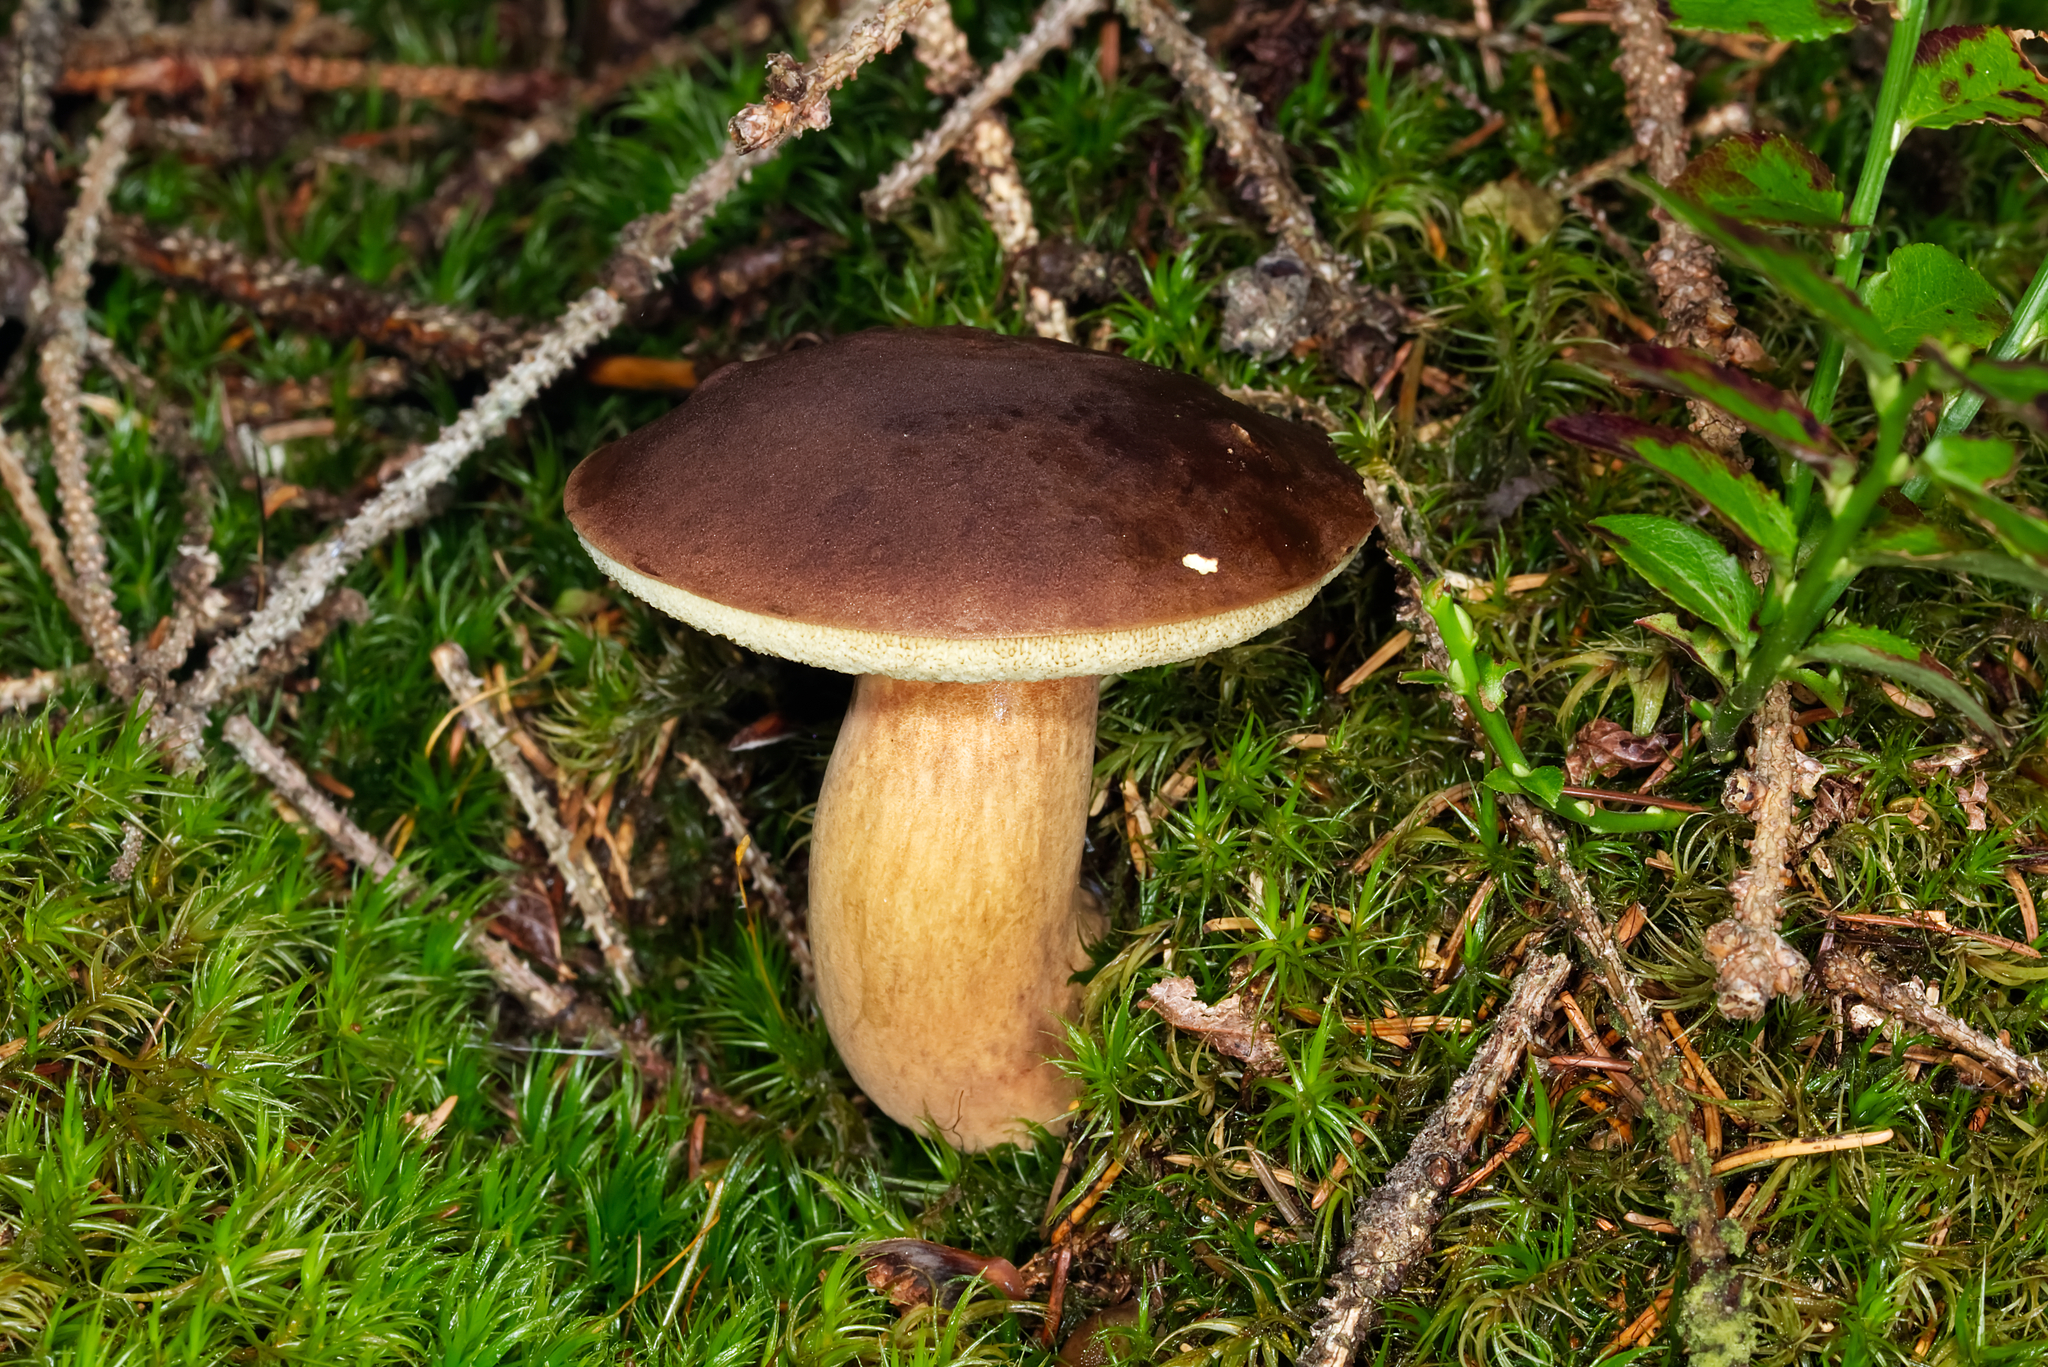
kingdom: Fungi
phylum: Basidiomycota
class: Agaricomycetes
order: Boletales
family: Boletaceae
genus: Imleria
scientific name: Imleria badia
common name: Bay bolete
